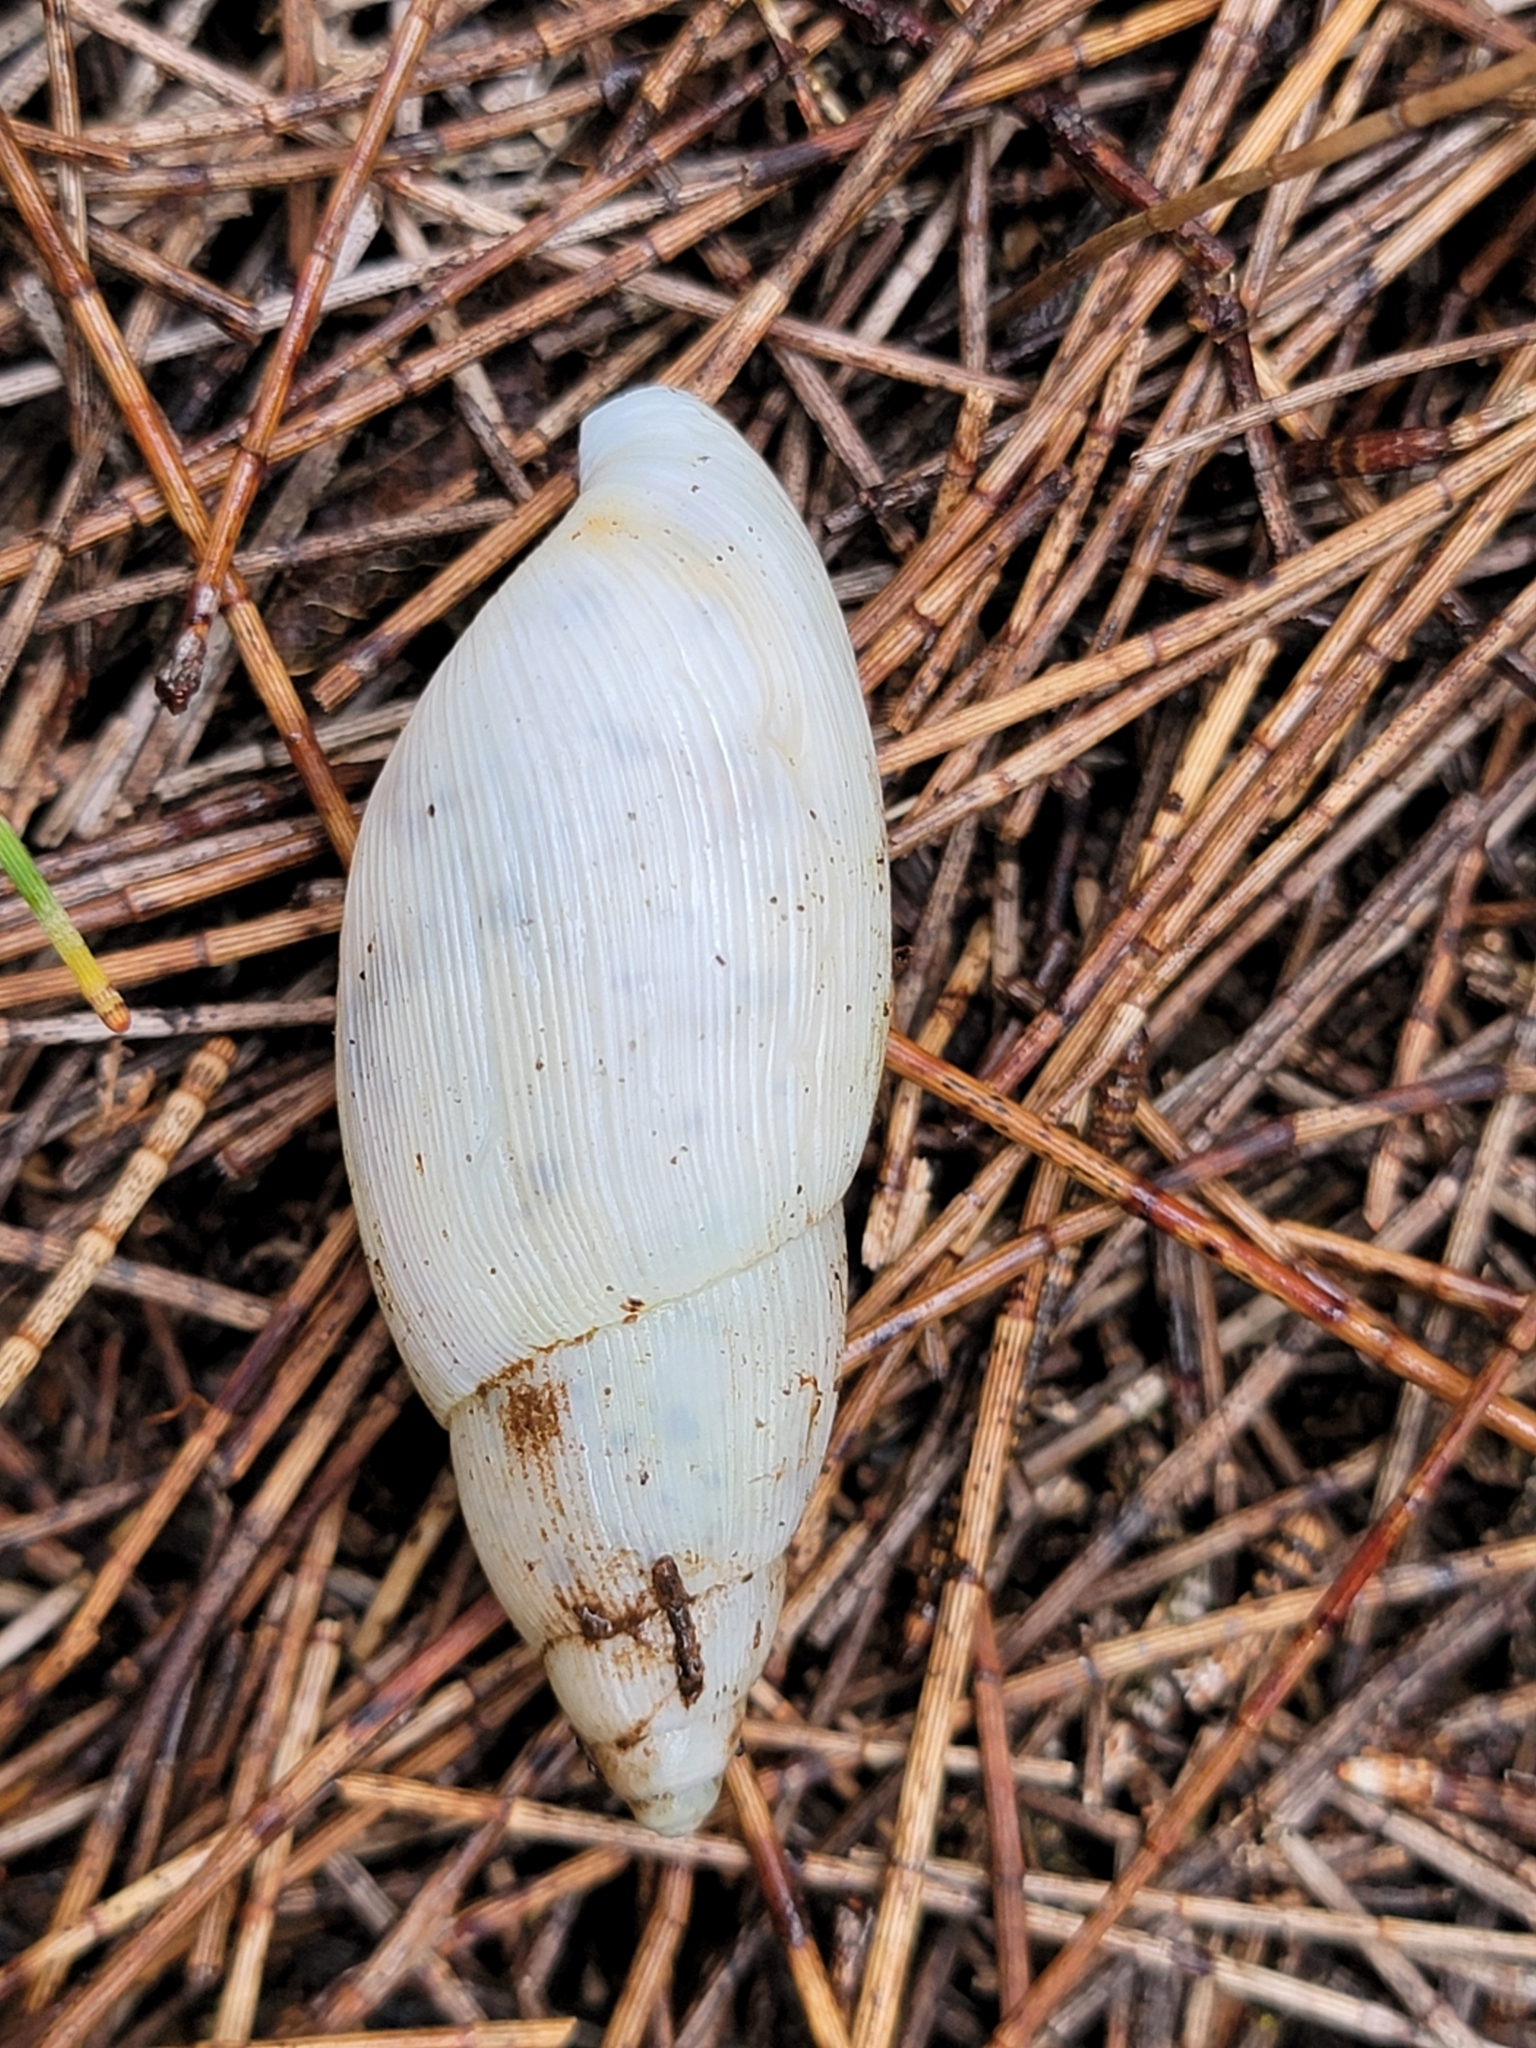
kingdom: Animalia
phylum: Mollusca
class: Gastropoda
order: Stylommatophora
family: Spiraxidae
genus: Euglandina
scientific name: Euglandina rosea
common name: Rosy wolfsnail
